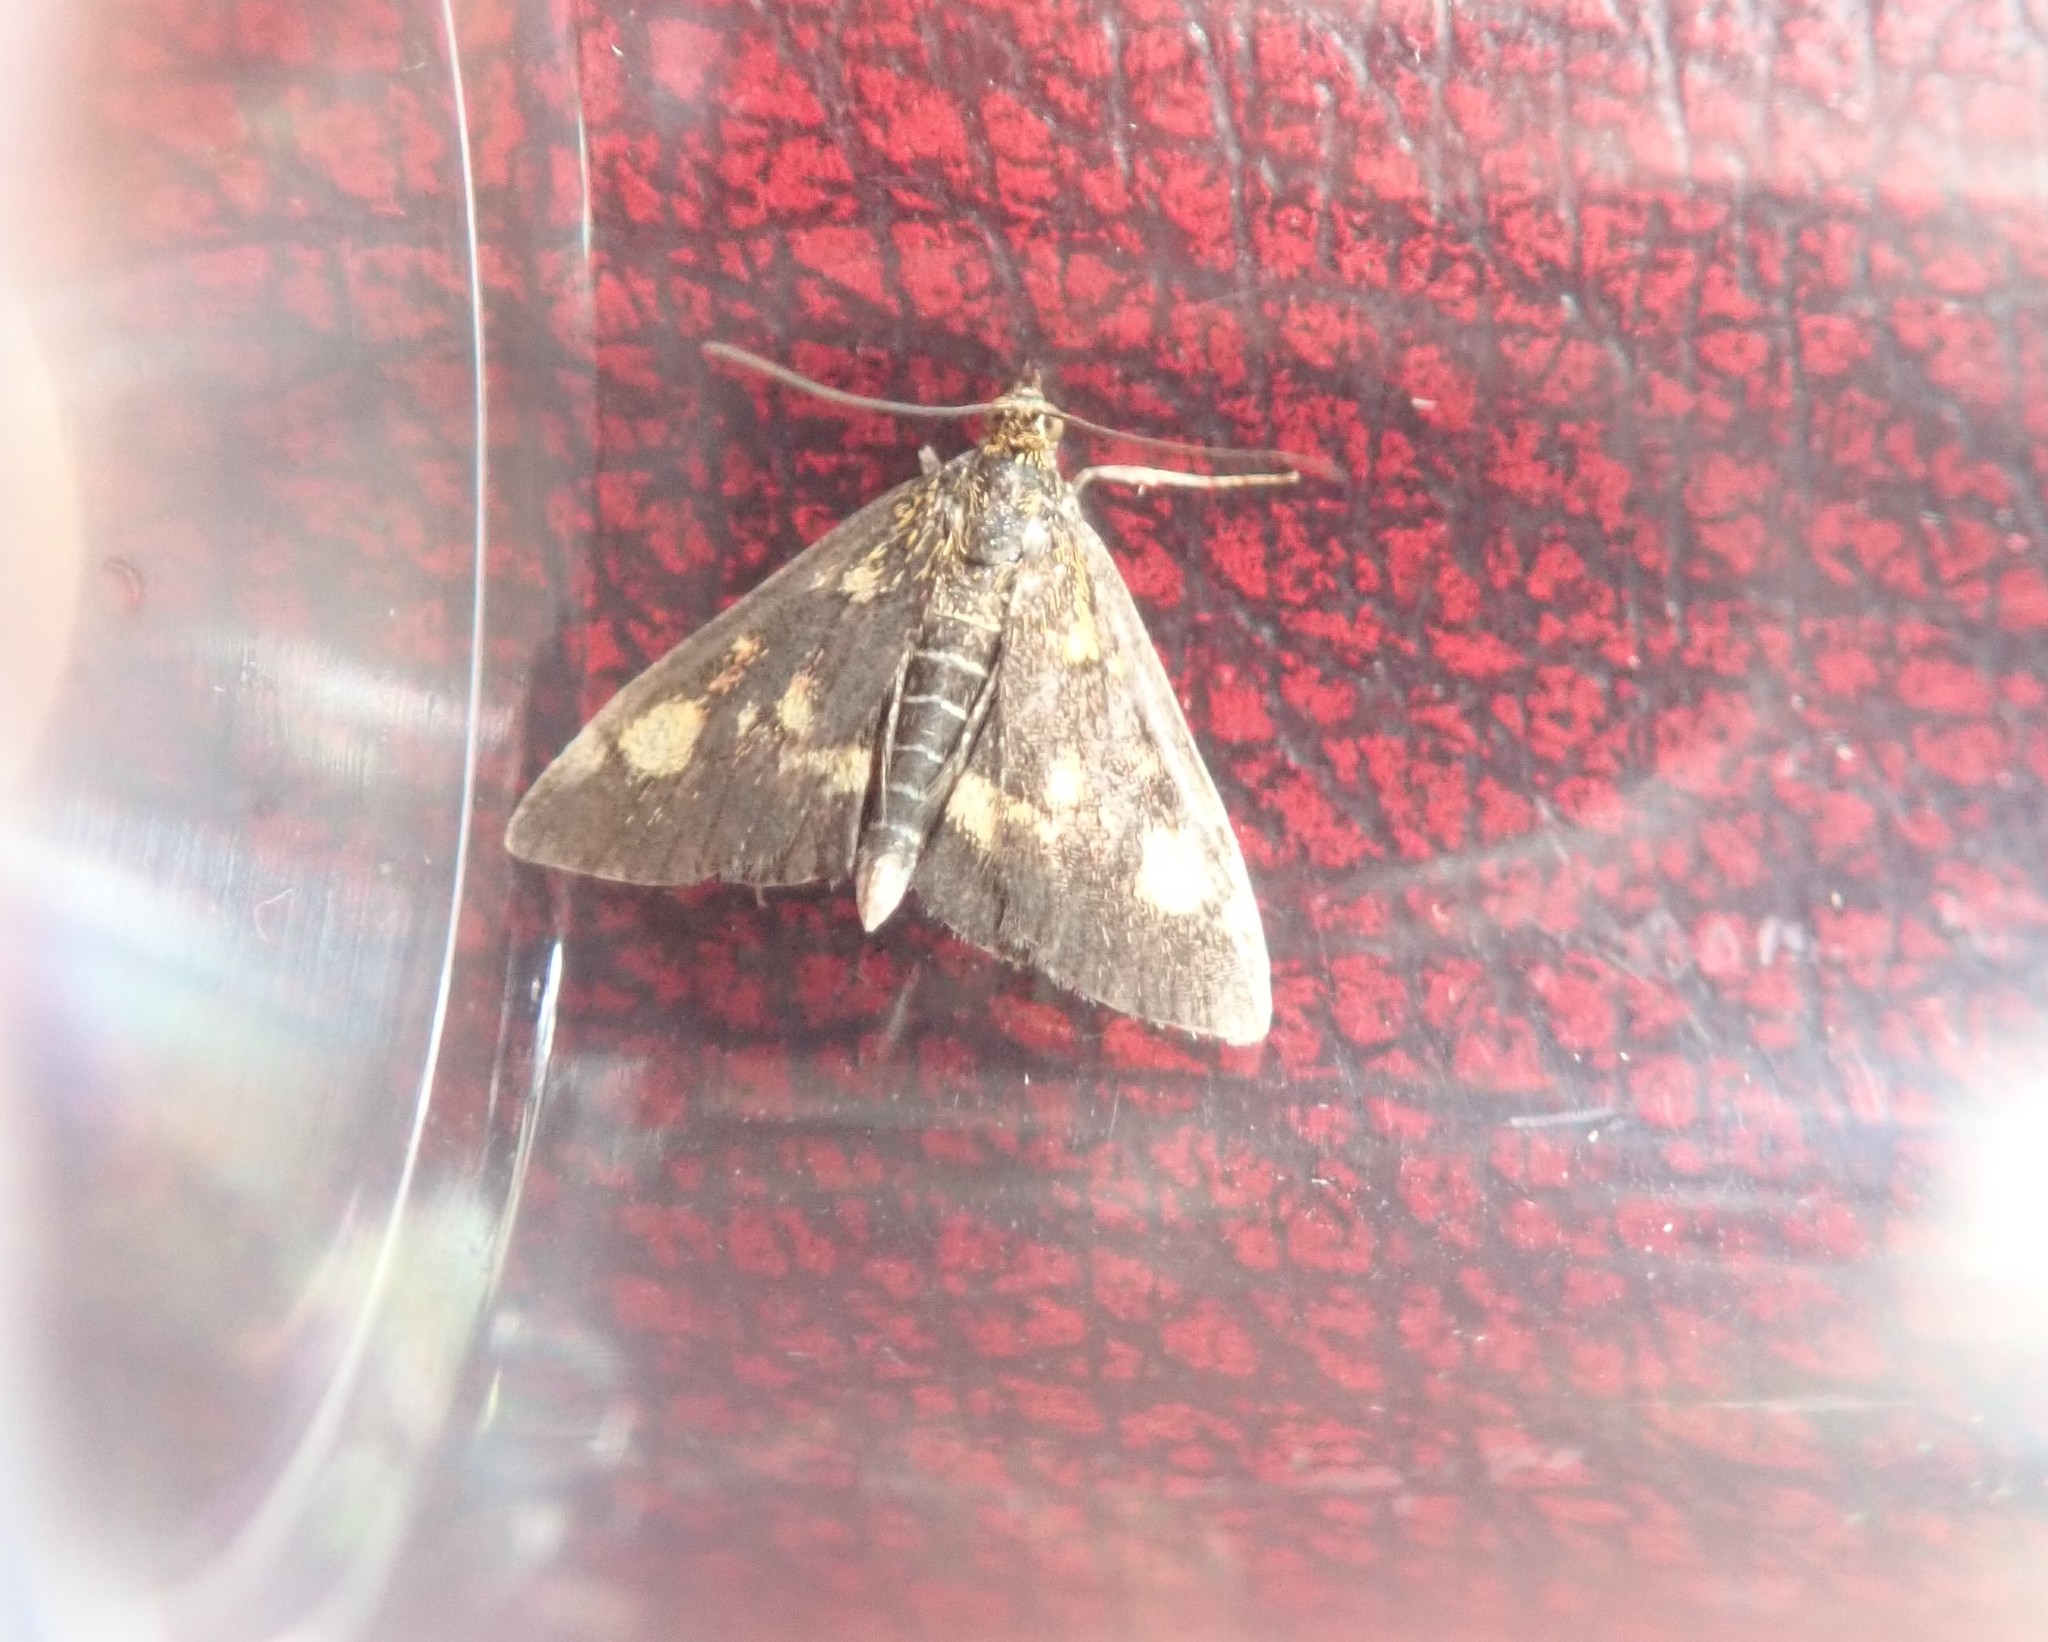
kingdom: Animalia
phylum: Arthropoda
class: Insecta
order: Lepidoptera
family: Crambidae
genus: Pyrausta
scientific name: Pyrausta aurata
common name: Small purple & gold
